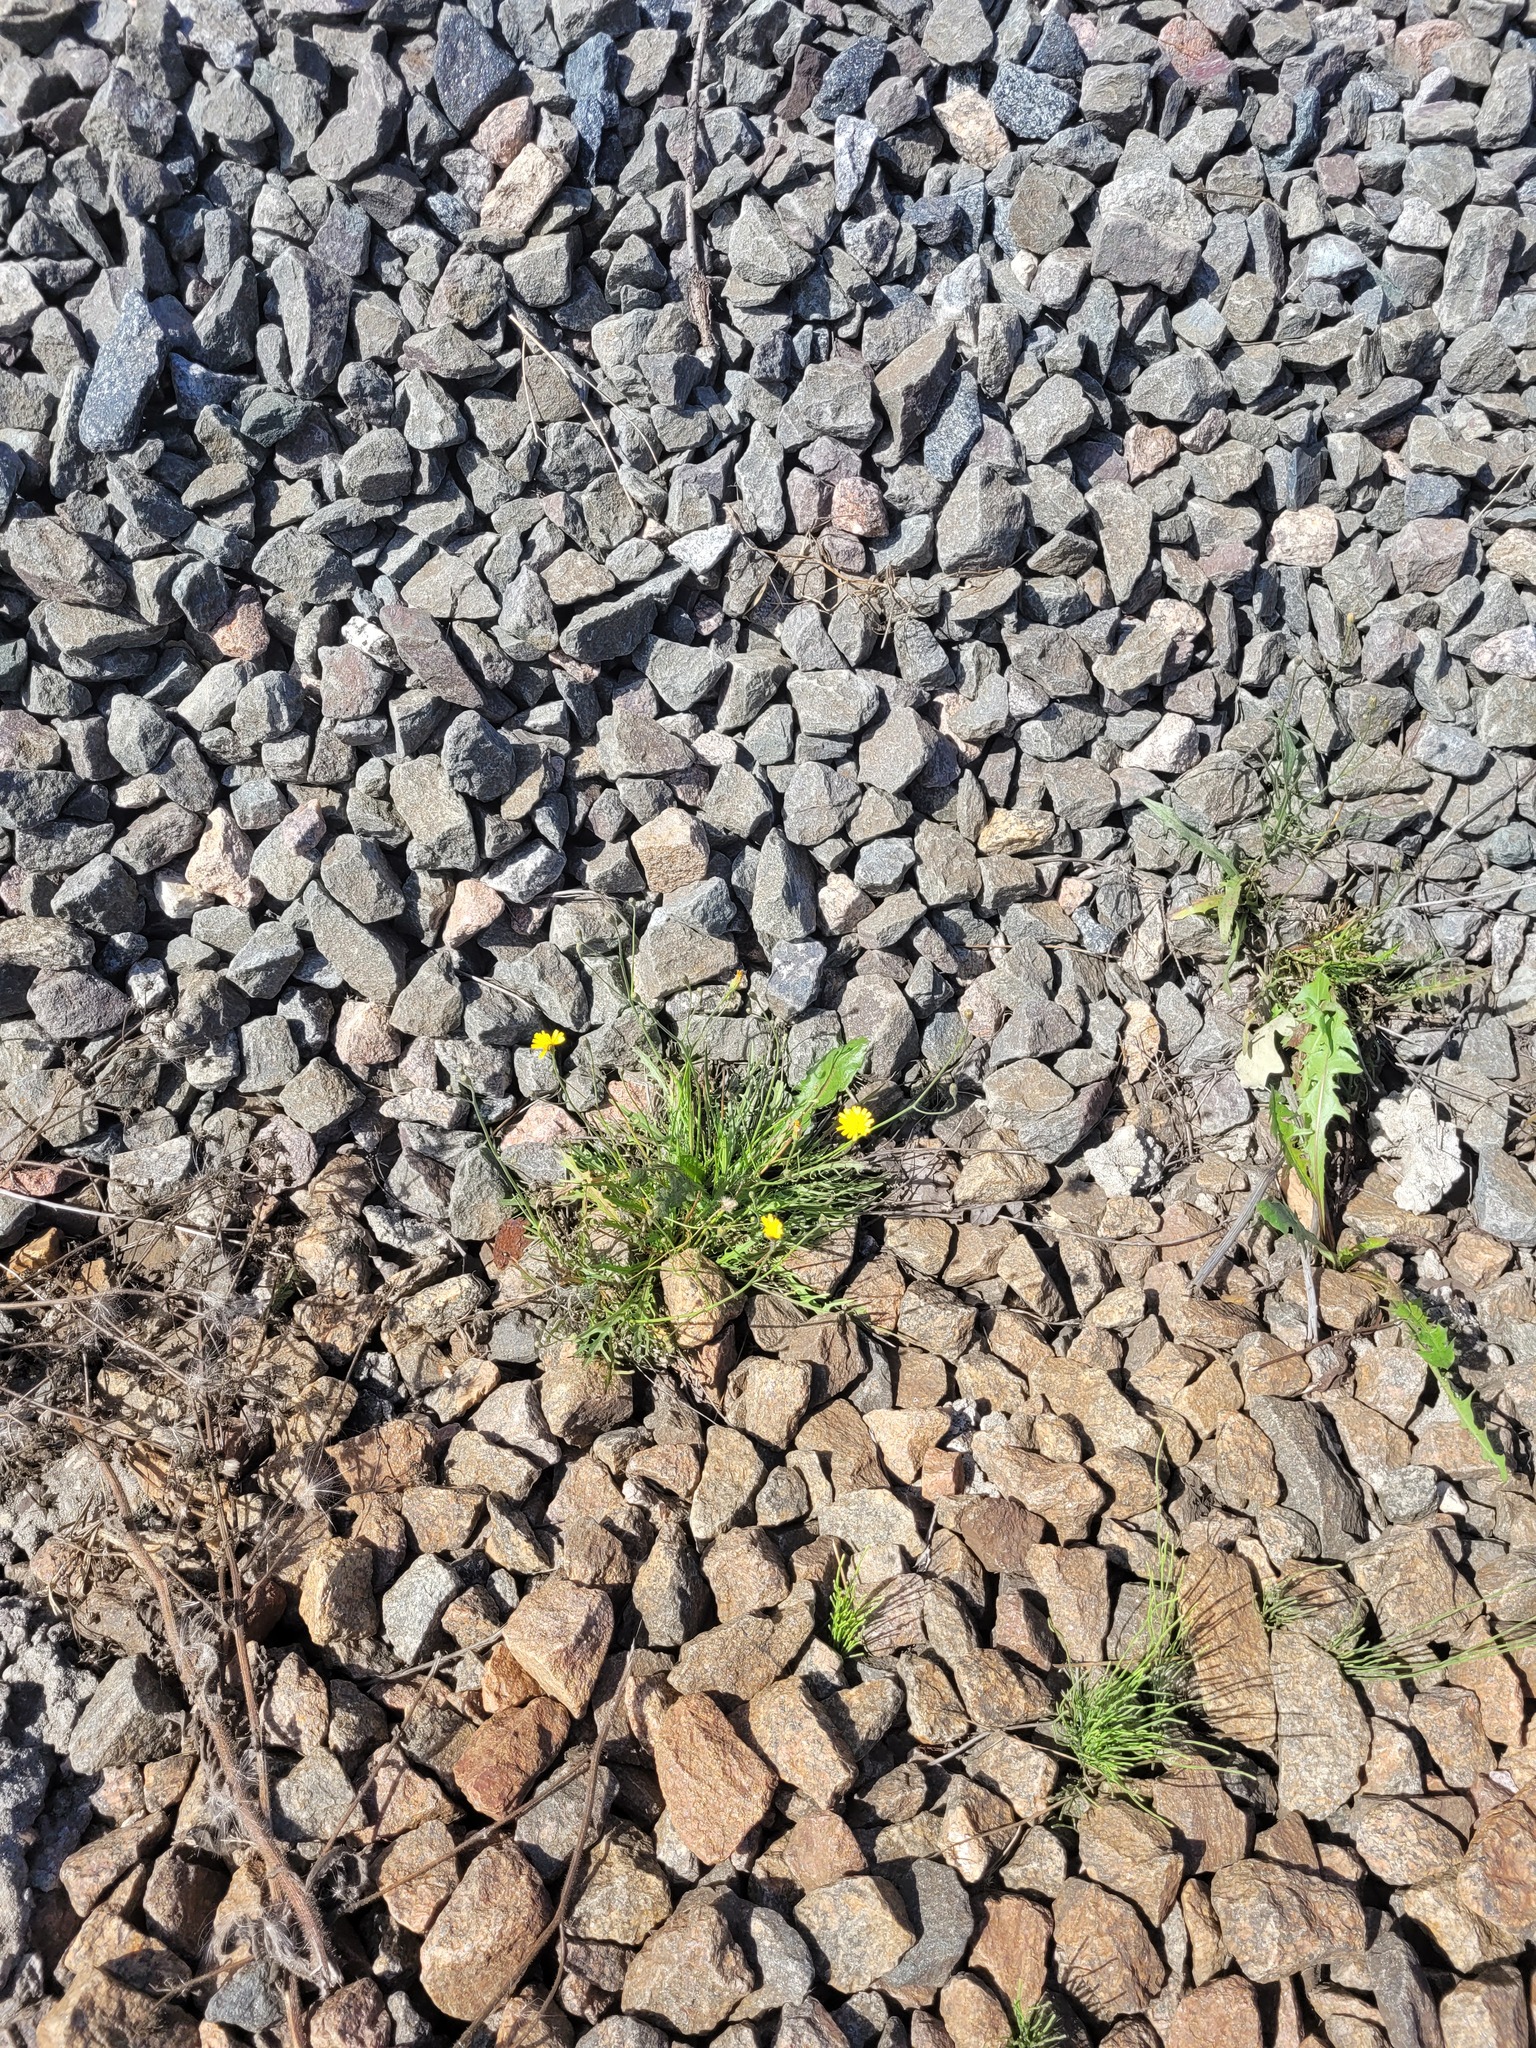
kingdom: Plantae
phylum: Tracheophyta
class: Magnoliopsida
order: Asterales
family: Asteraceae
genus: Scorzoneroides
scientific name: Scorzoneroides autumnalis
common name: Autumn hawkbit
